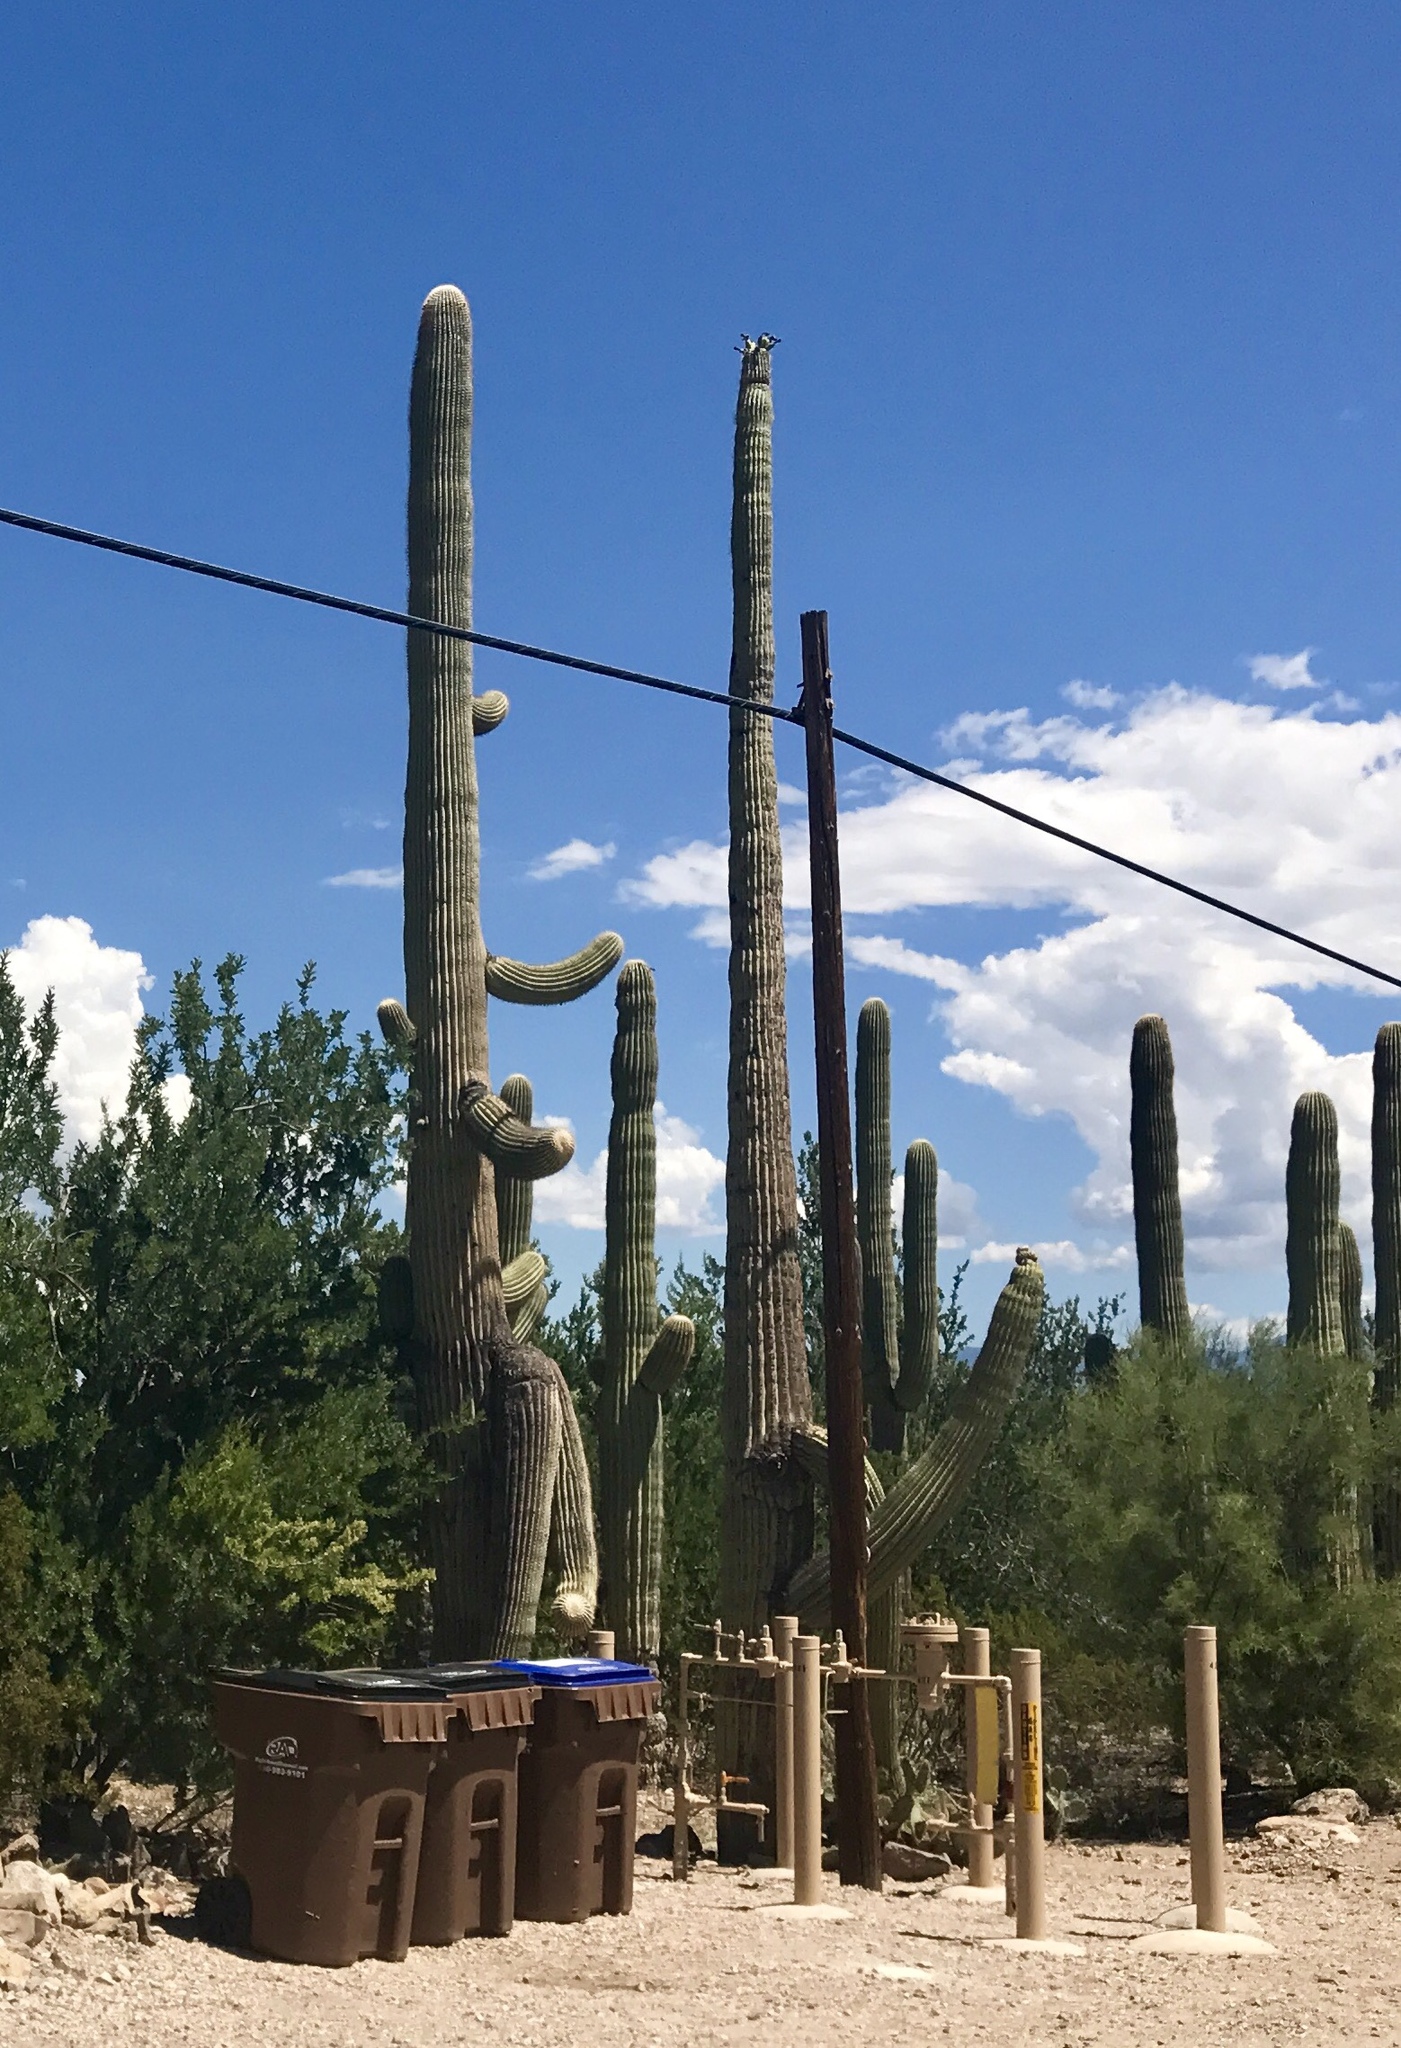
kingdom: Plantae
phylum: Tracheophyta
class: Magnoliopsida
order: Caryophyllales
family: Cactaceae
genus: Carnegiea
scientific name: Carnegiea gigantea
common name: Saguaro
